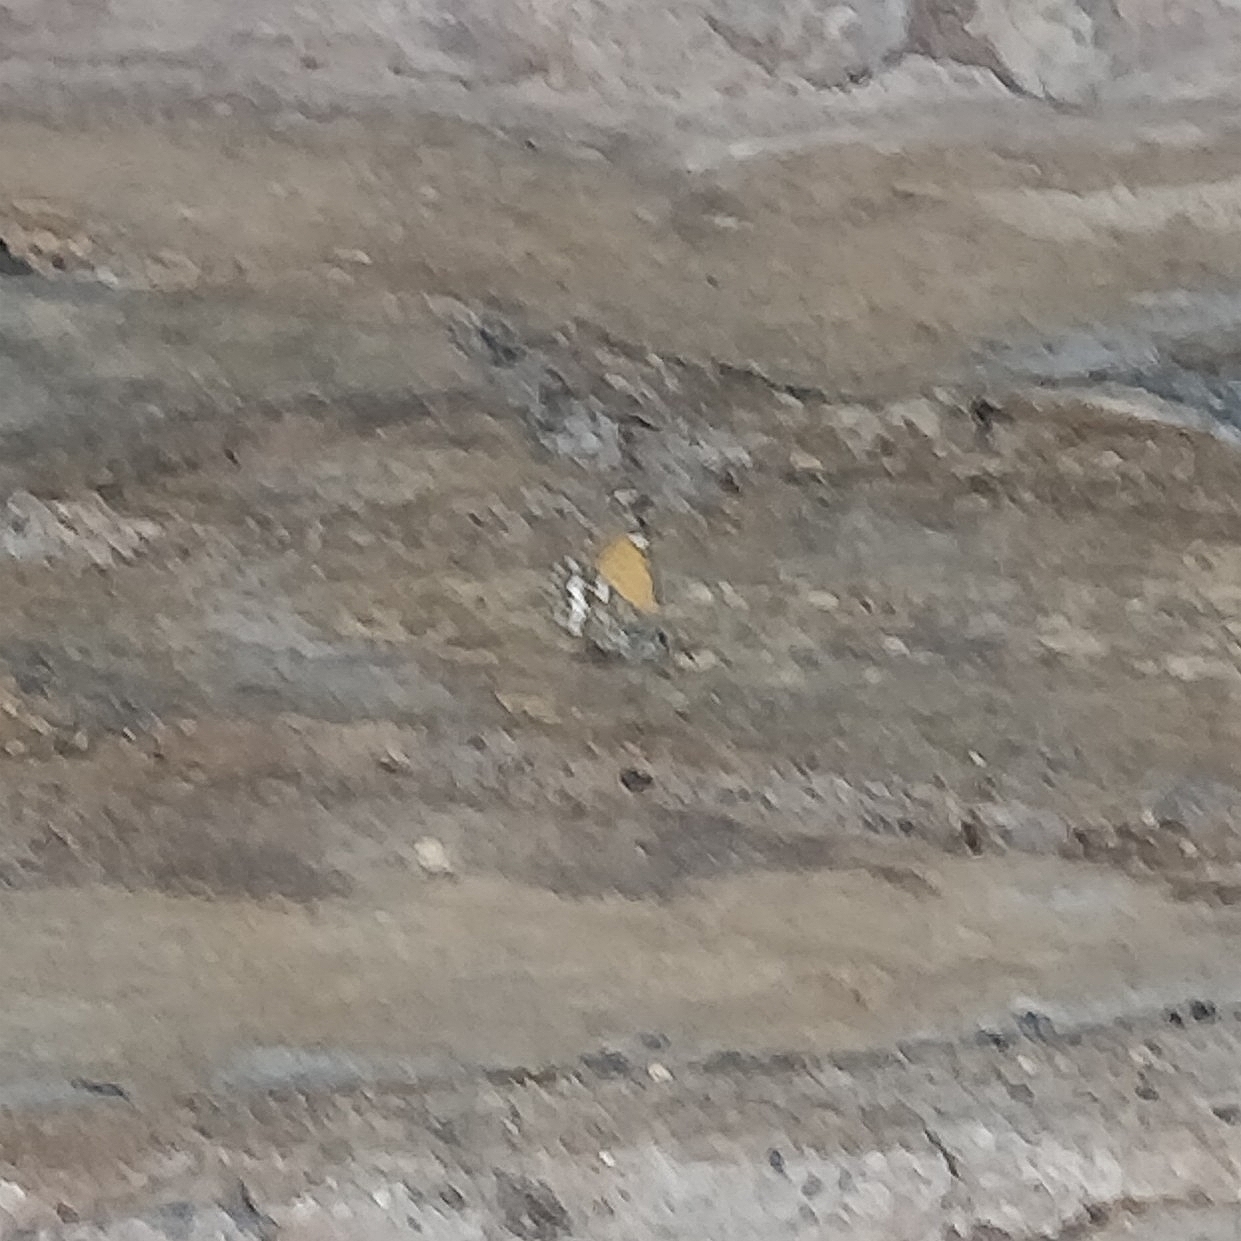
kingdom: Animalia
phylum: Arthropoda
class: Insecta
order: Lepidoptera
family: Lycaenidae
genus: Cyclyrius
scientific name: Cyclyrius webbianus
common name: Canary blue
